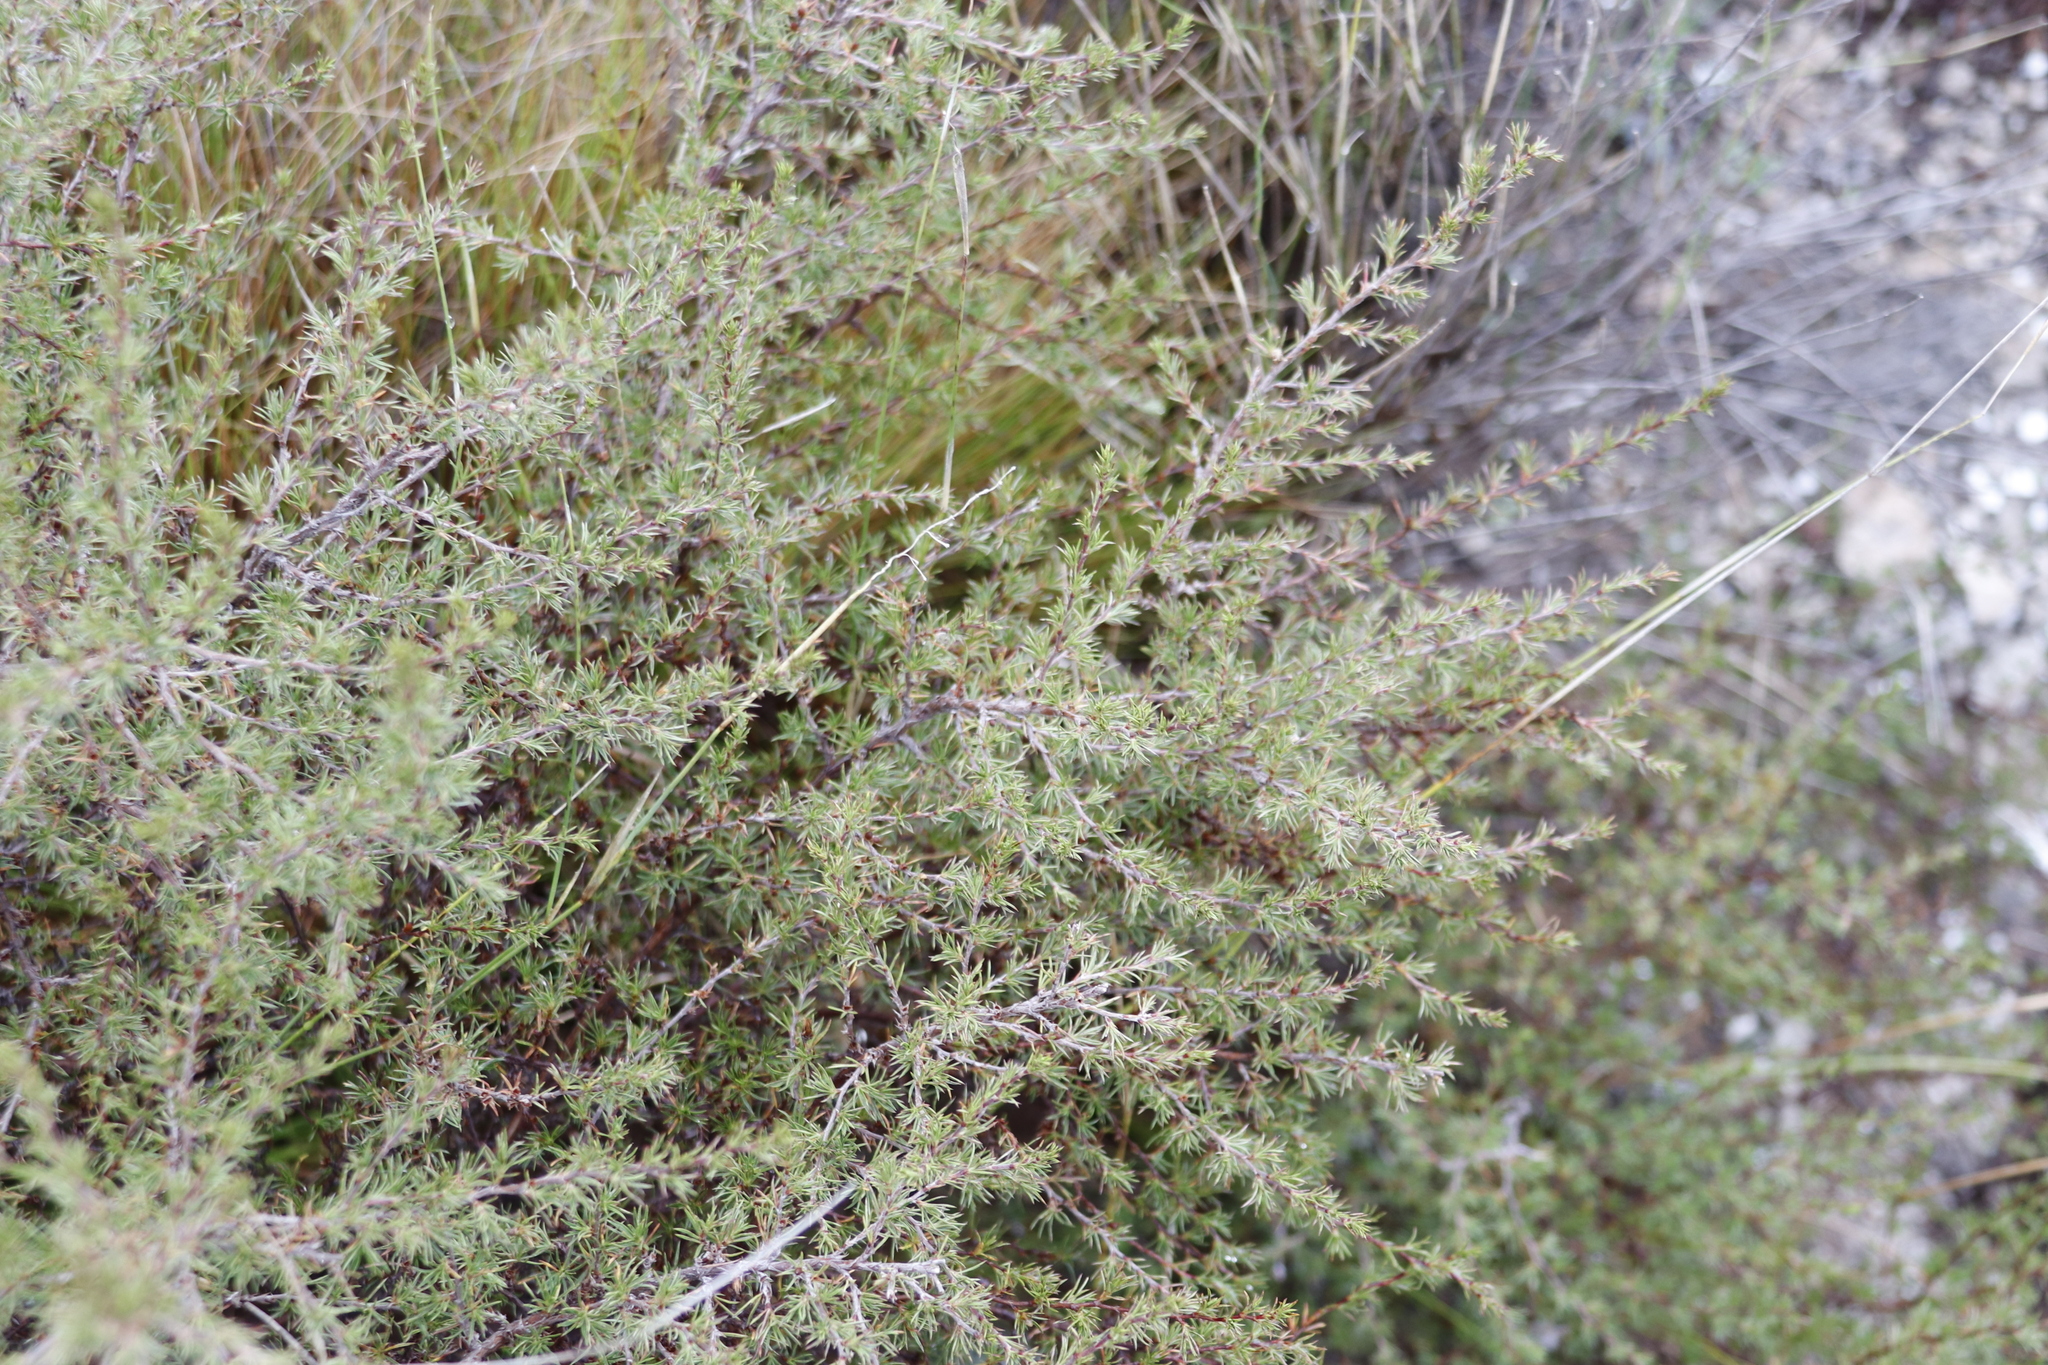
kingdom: Plantae
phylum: Tracheophyta
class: Magnoliopsida
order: Rosales
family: Rosaceae
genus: Cliffortia
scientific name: Cliffortia atrata
